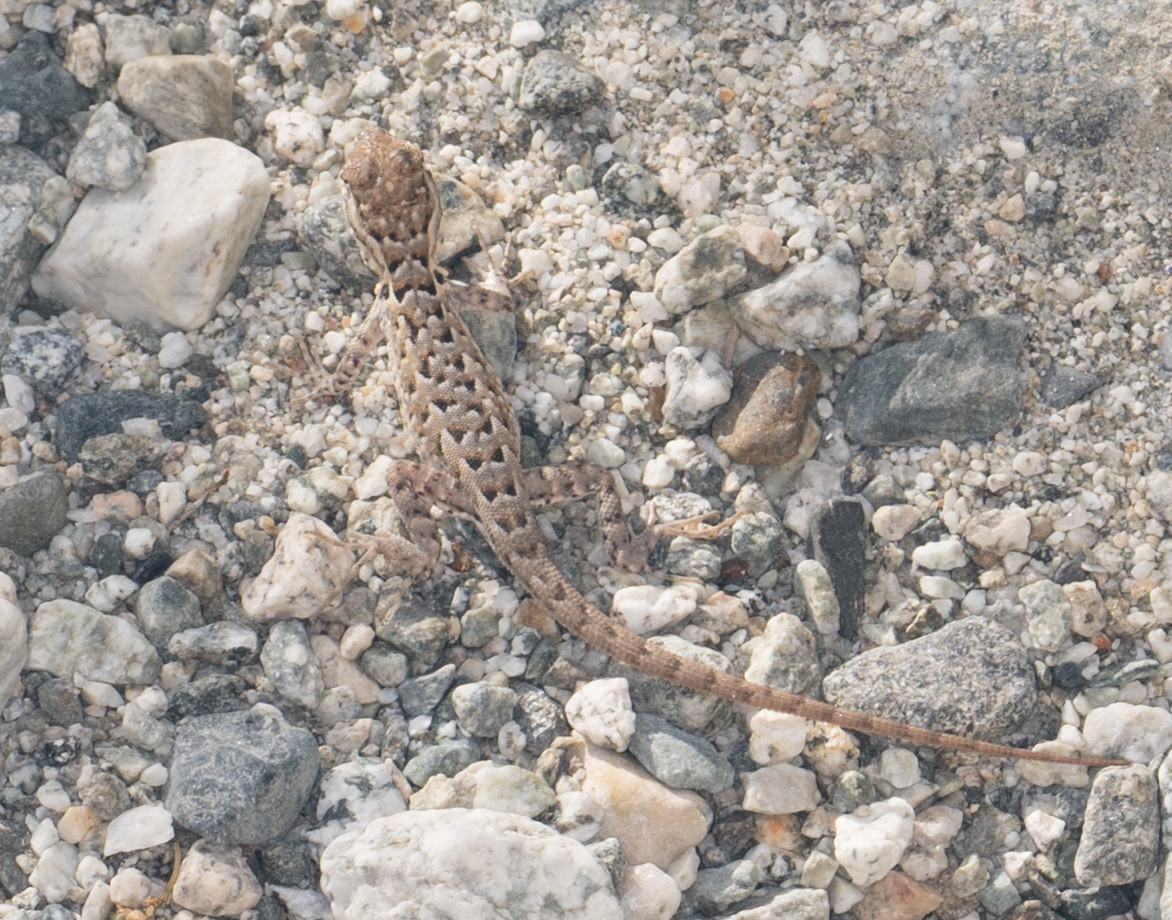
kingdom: Animalia
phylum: Chordata
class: Squamata
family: Phrynosomatidae
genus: Uta
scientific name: Uta stansburiana
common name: Side-blotched lizard
